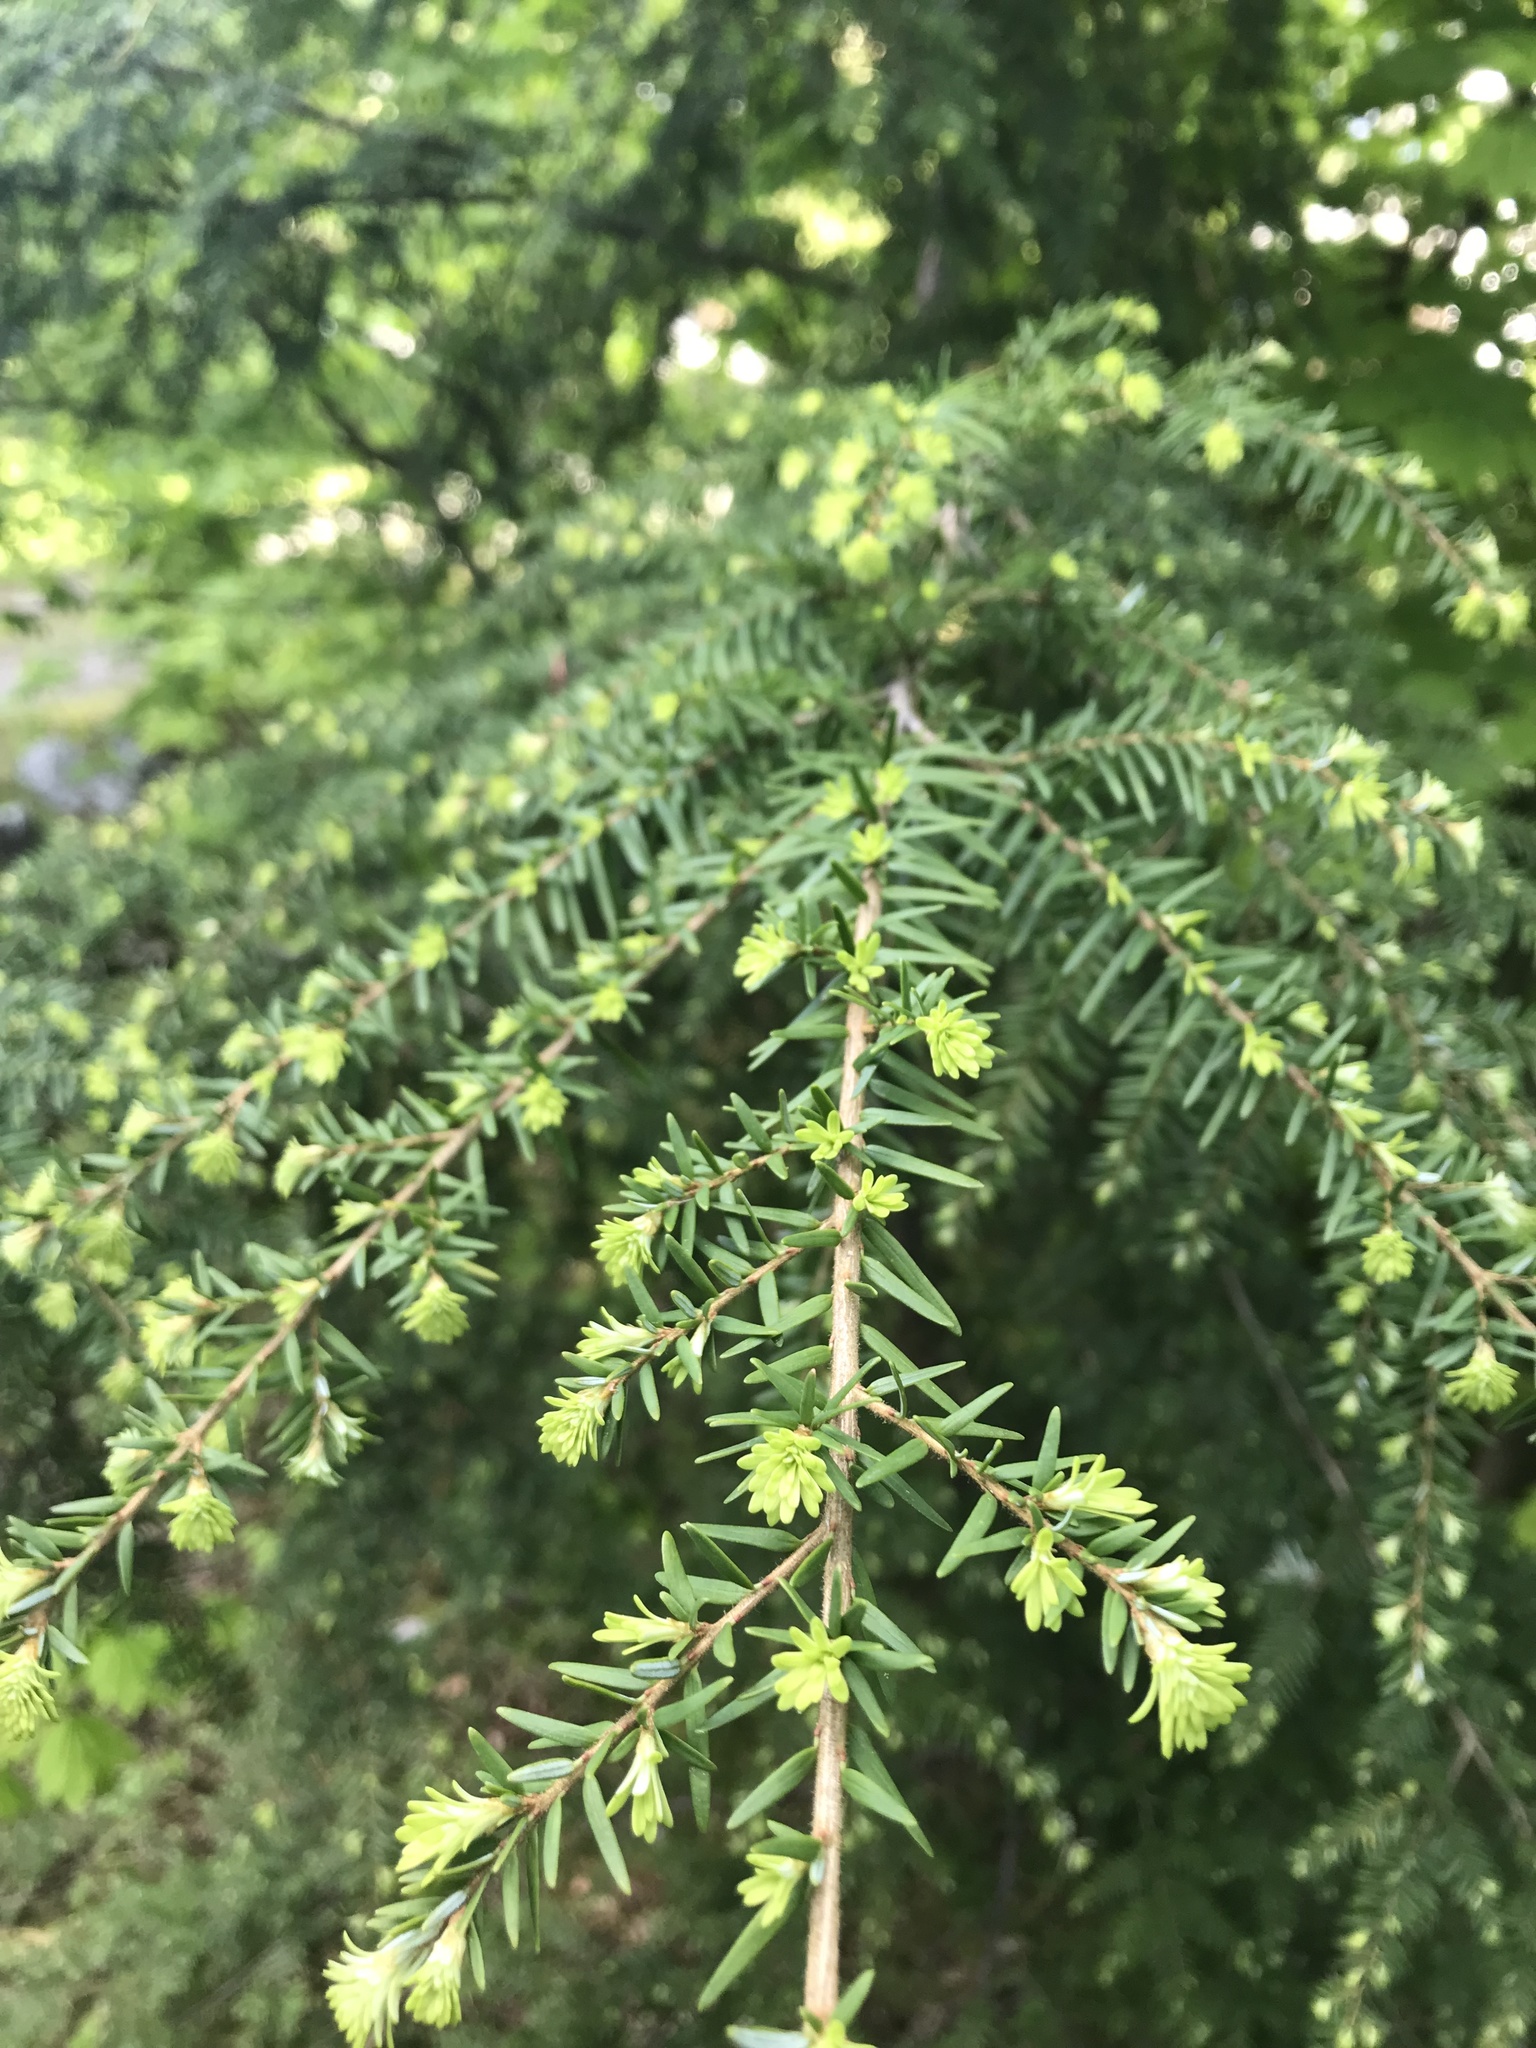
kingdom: Plantae
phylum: Tracheophyta
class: Pinopsida
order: Pinales
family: Pinaceae
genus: Tsuga
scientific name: Tsuga heterophylla
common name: Western hemlock
